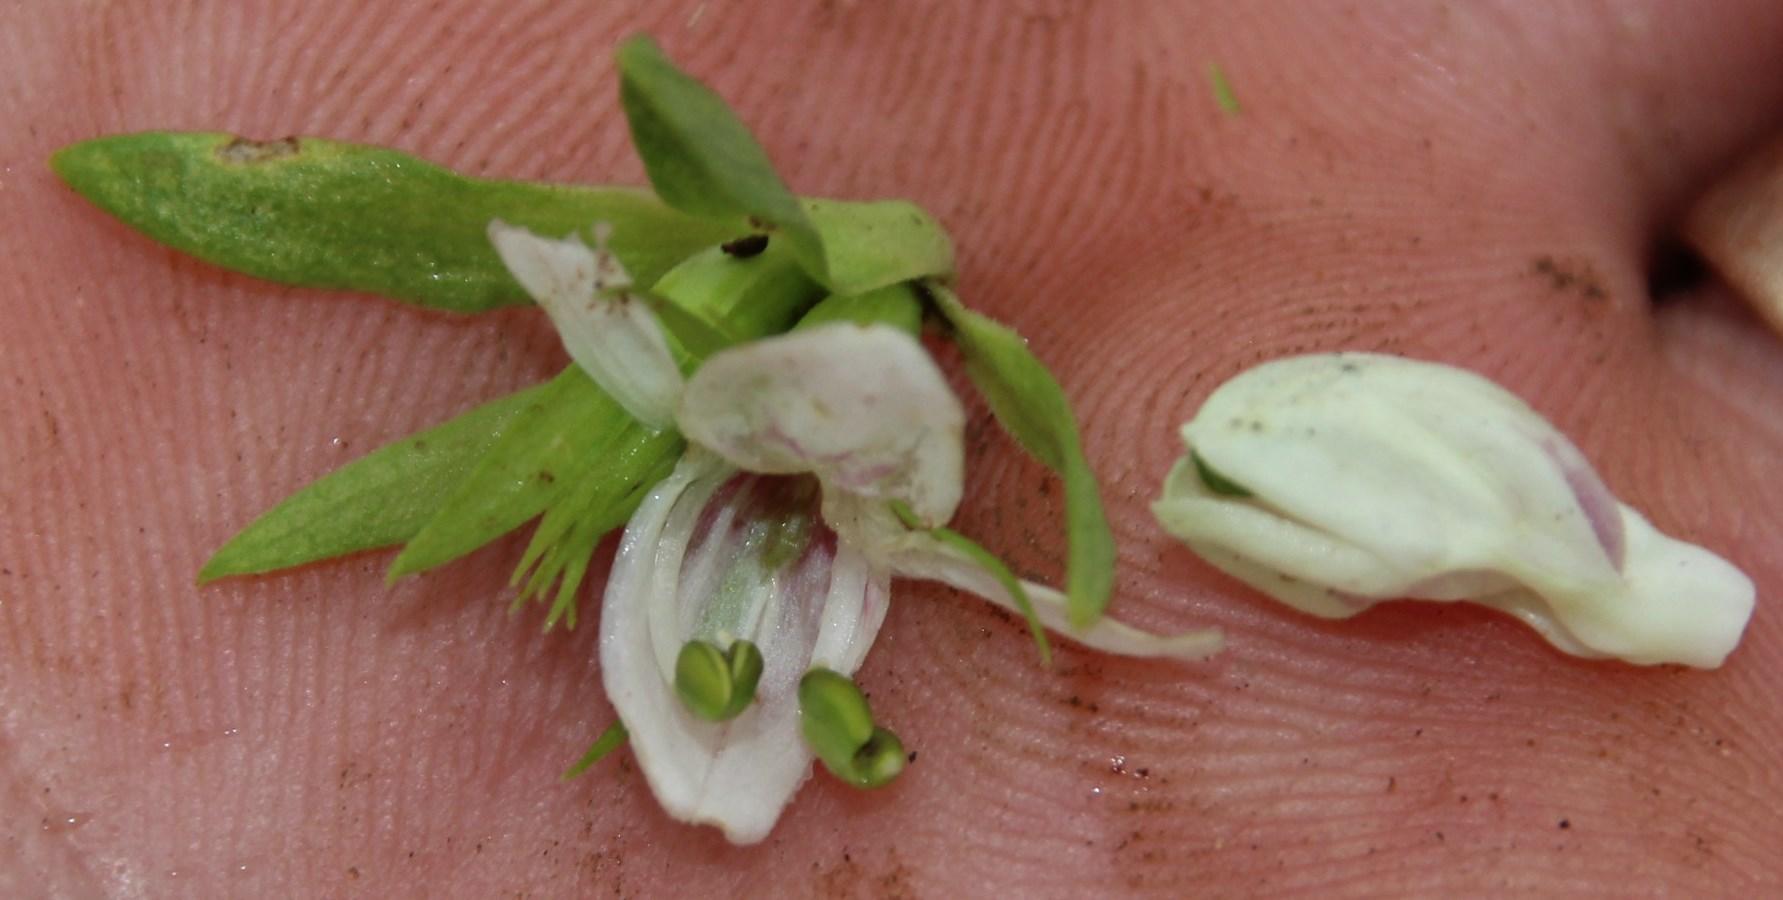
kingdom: Plantae
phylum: Tracheophyta
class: Magnoliopsida
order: Lamiales
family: Acanthaceae
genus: Justicia
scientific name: Justicia andromeda
